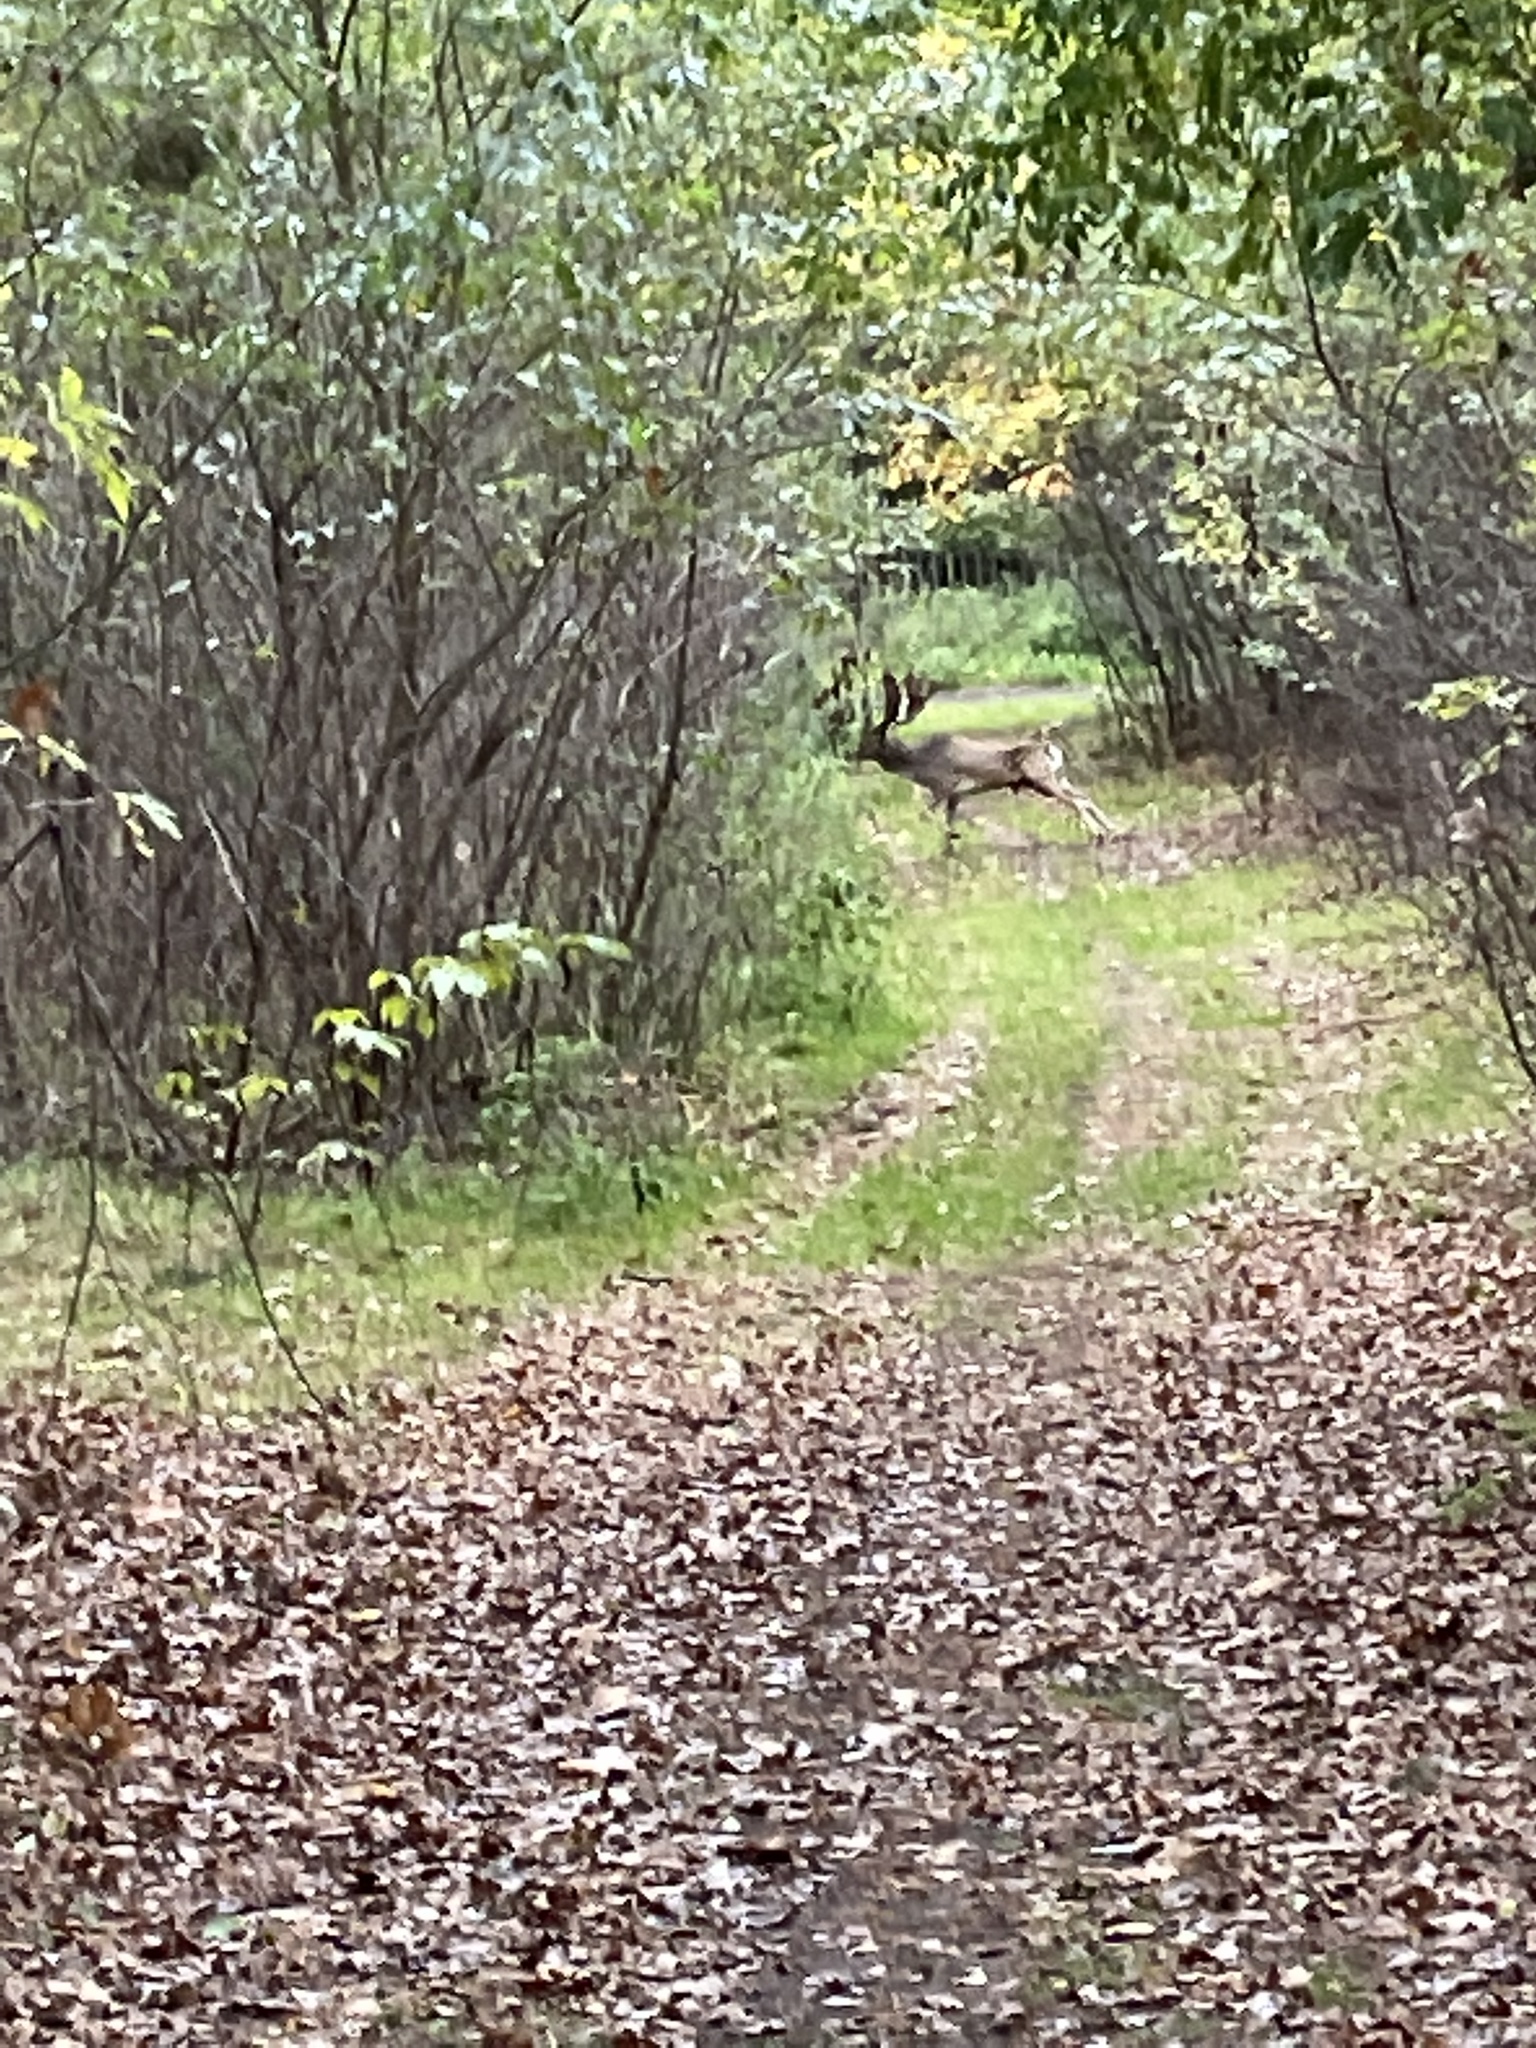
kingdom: Animalia
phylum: Chordata
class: Mammalia
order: Artiodactyla
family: Cervidae
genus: Dama
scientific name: Dama dama
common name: Fallow deer
